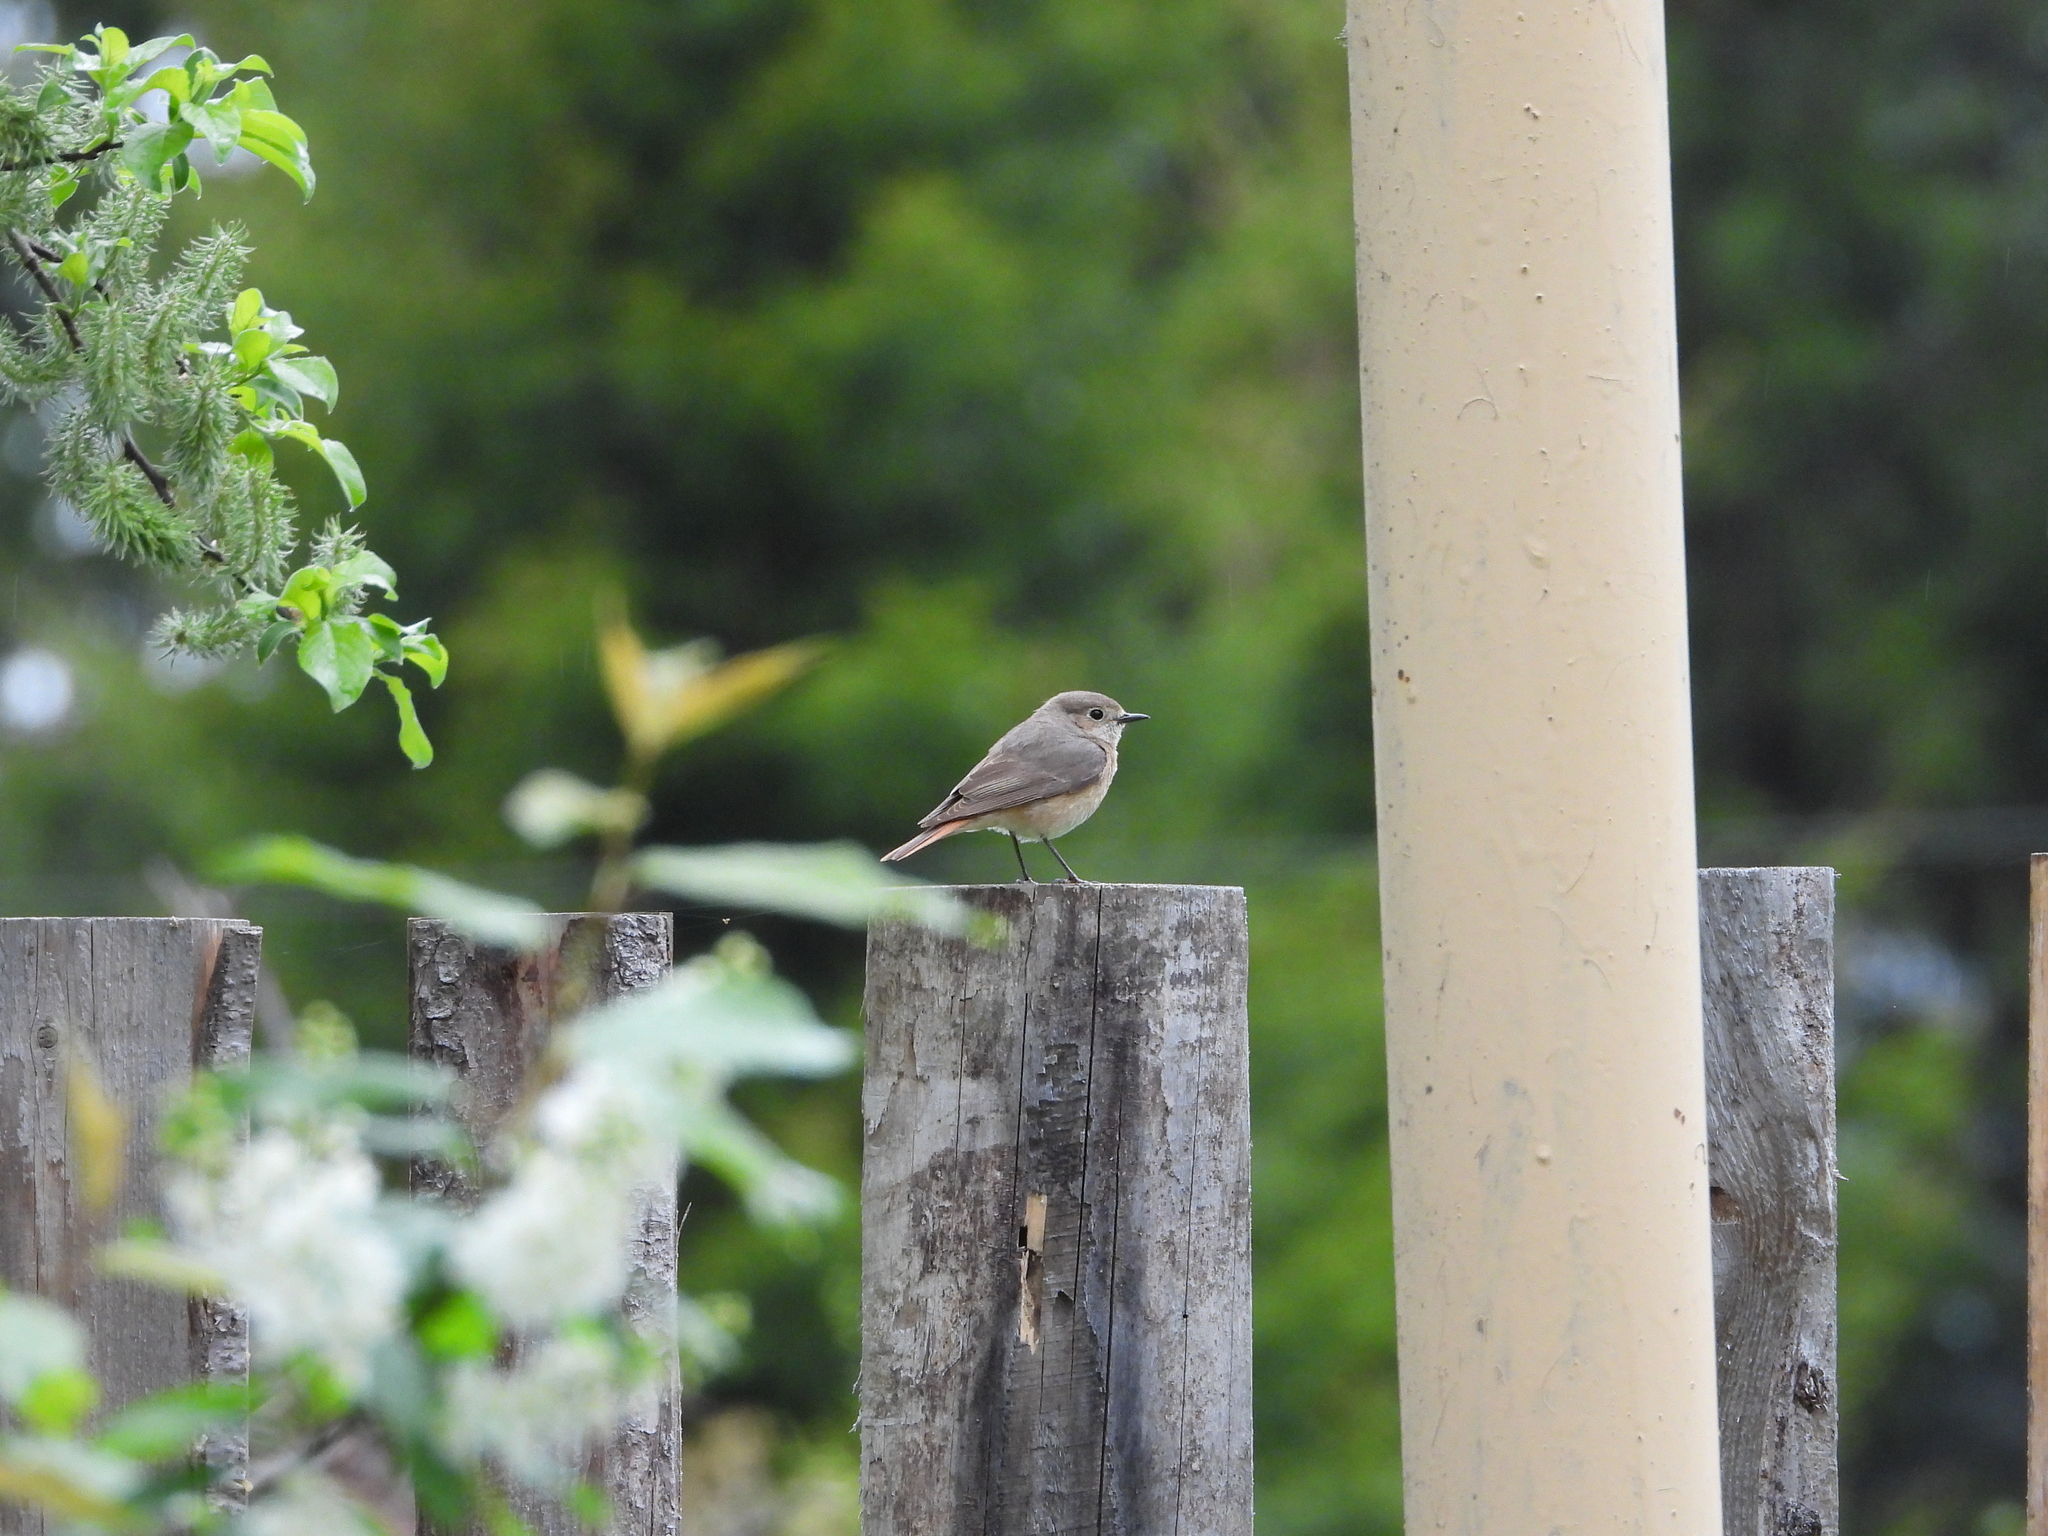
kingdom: Animalia
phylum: Chordata
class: Aves
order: Passeriformes
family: Muscicapidae
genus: Phoenicurus
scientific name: Phoenicurus phoenicurus
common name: Common redstart
